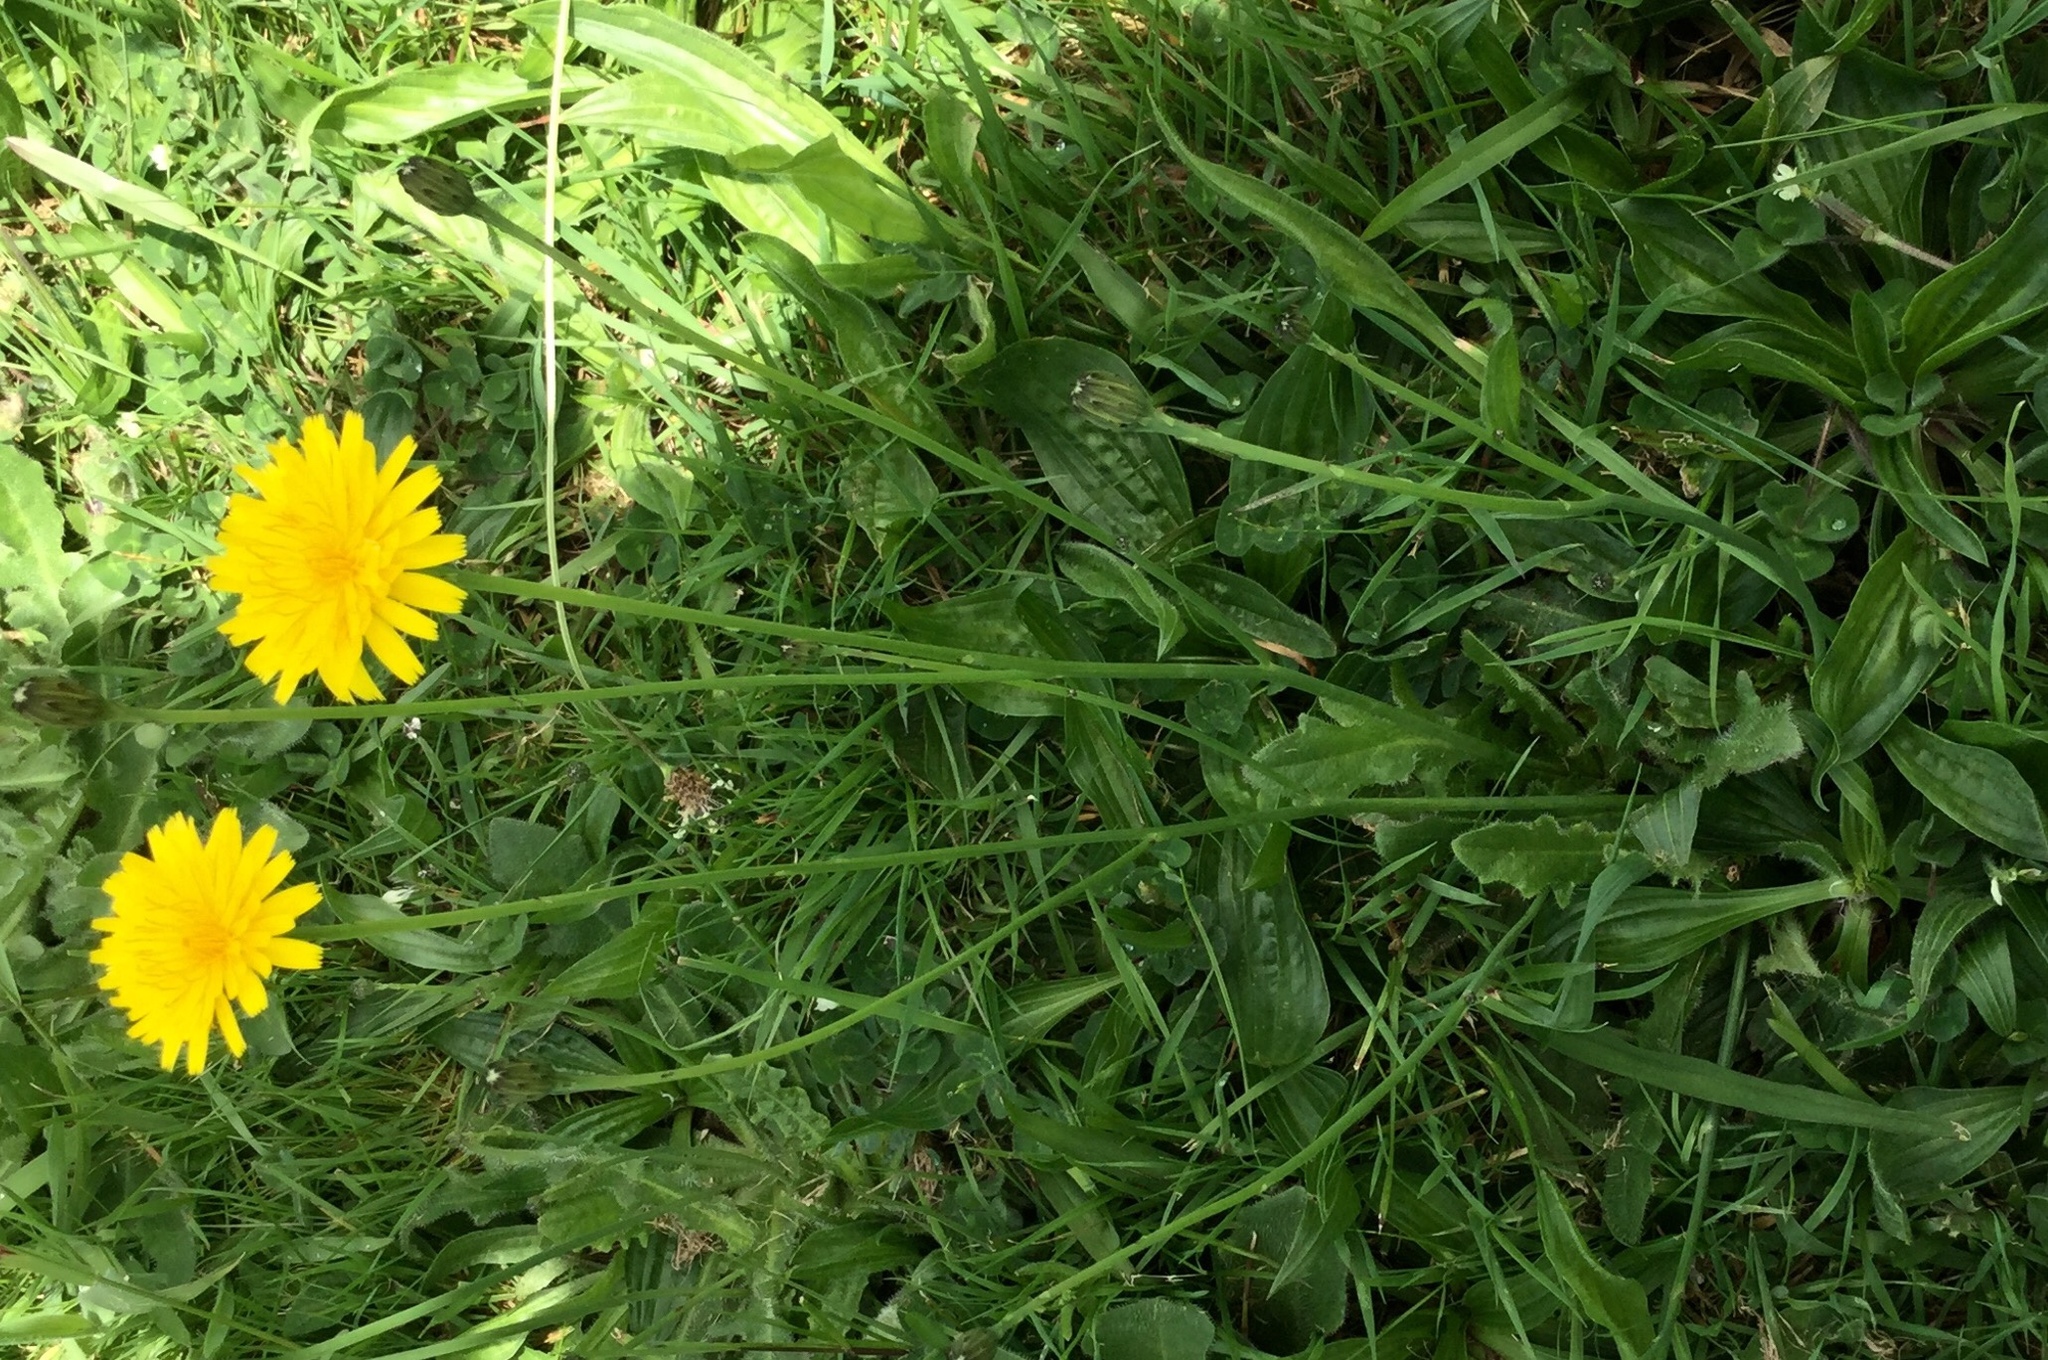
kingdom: Plantae
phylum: Tracheophyta
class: Magnoliopsida
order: Asterales
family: Asteraceae
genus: Hypochaeris
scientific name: Hypochaeris radicata
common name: Flatweed
